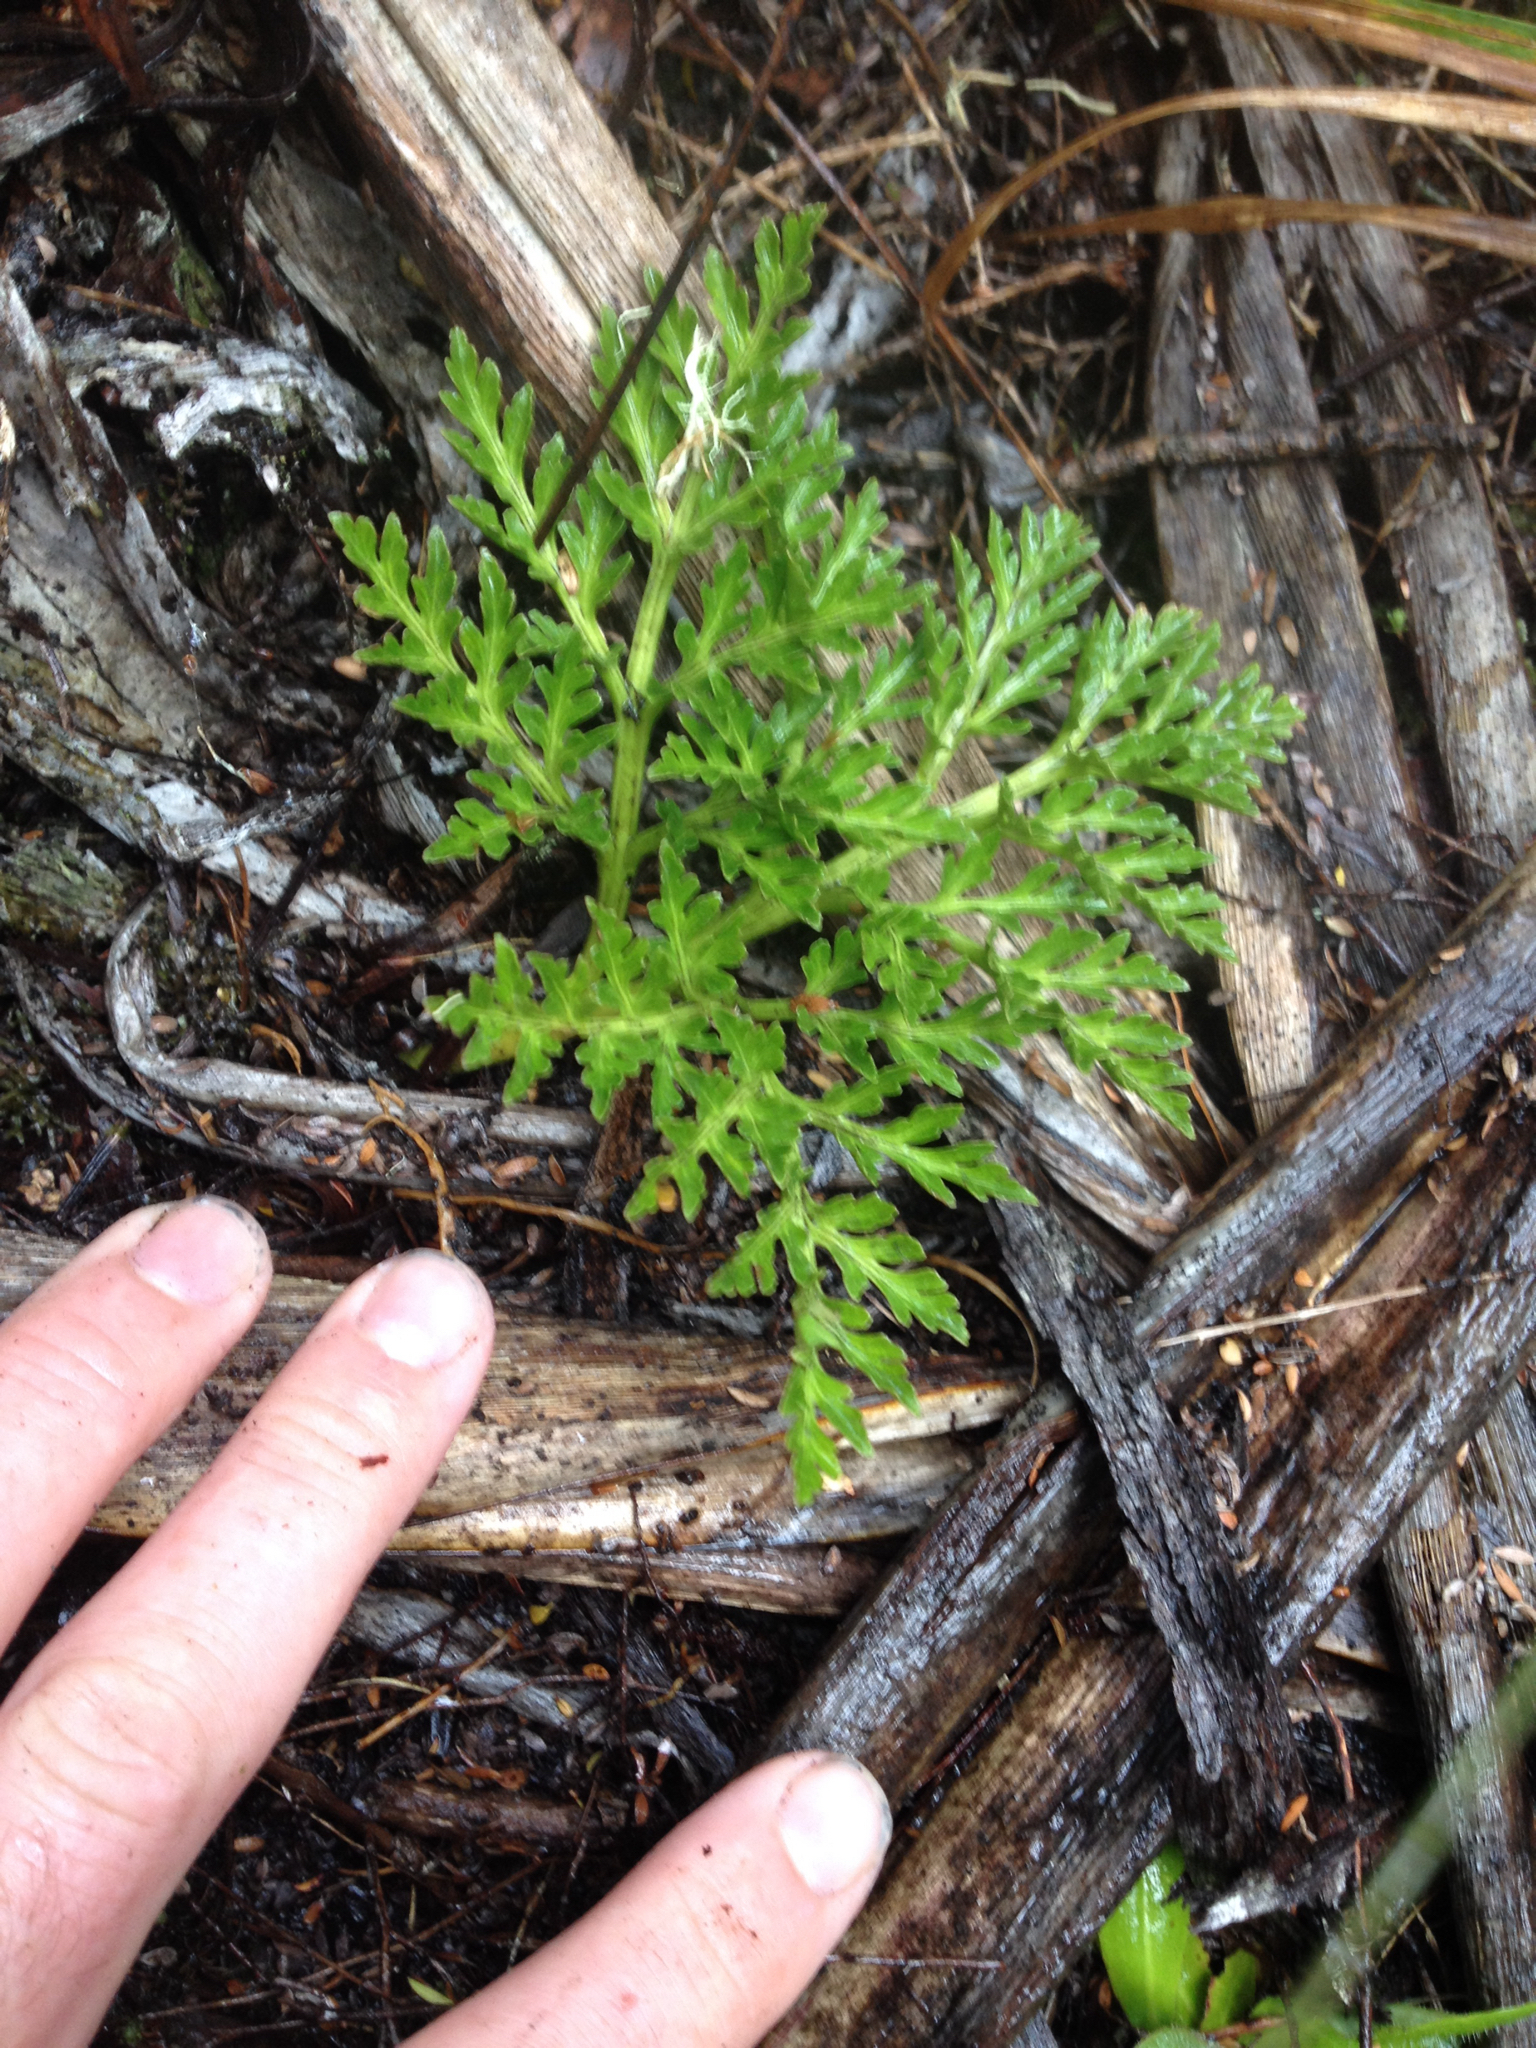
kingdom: Plantae
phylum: Tracheophyta
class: Polypodiopsida
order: Ophioglossales
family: Ophioglossaceae
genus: Sceptridium
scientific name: Sceptridium australe
